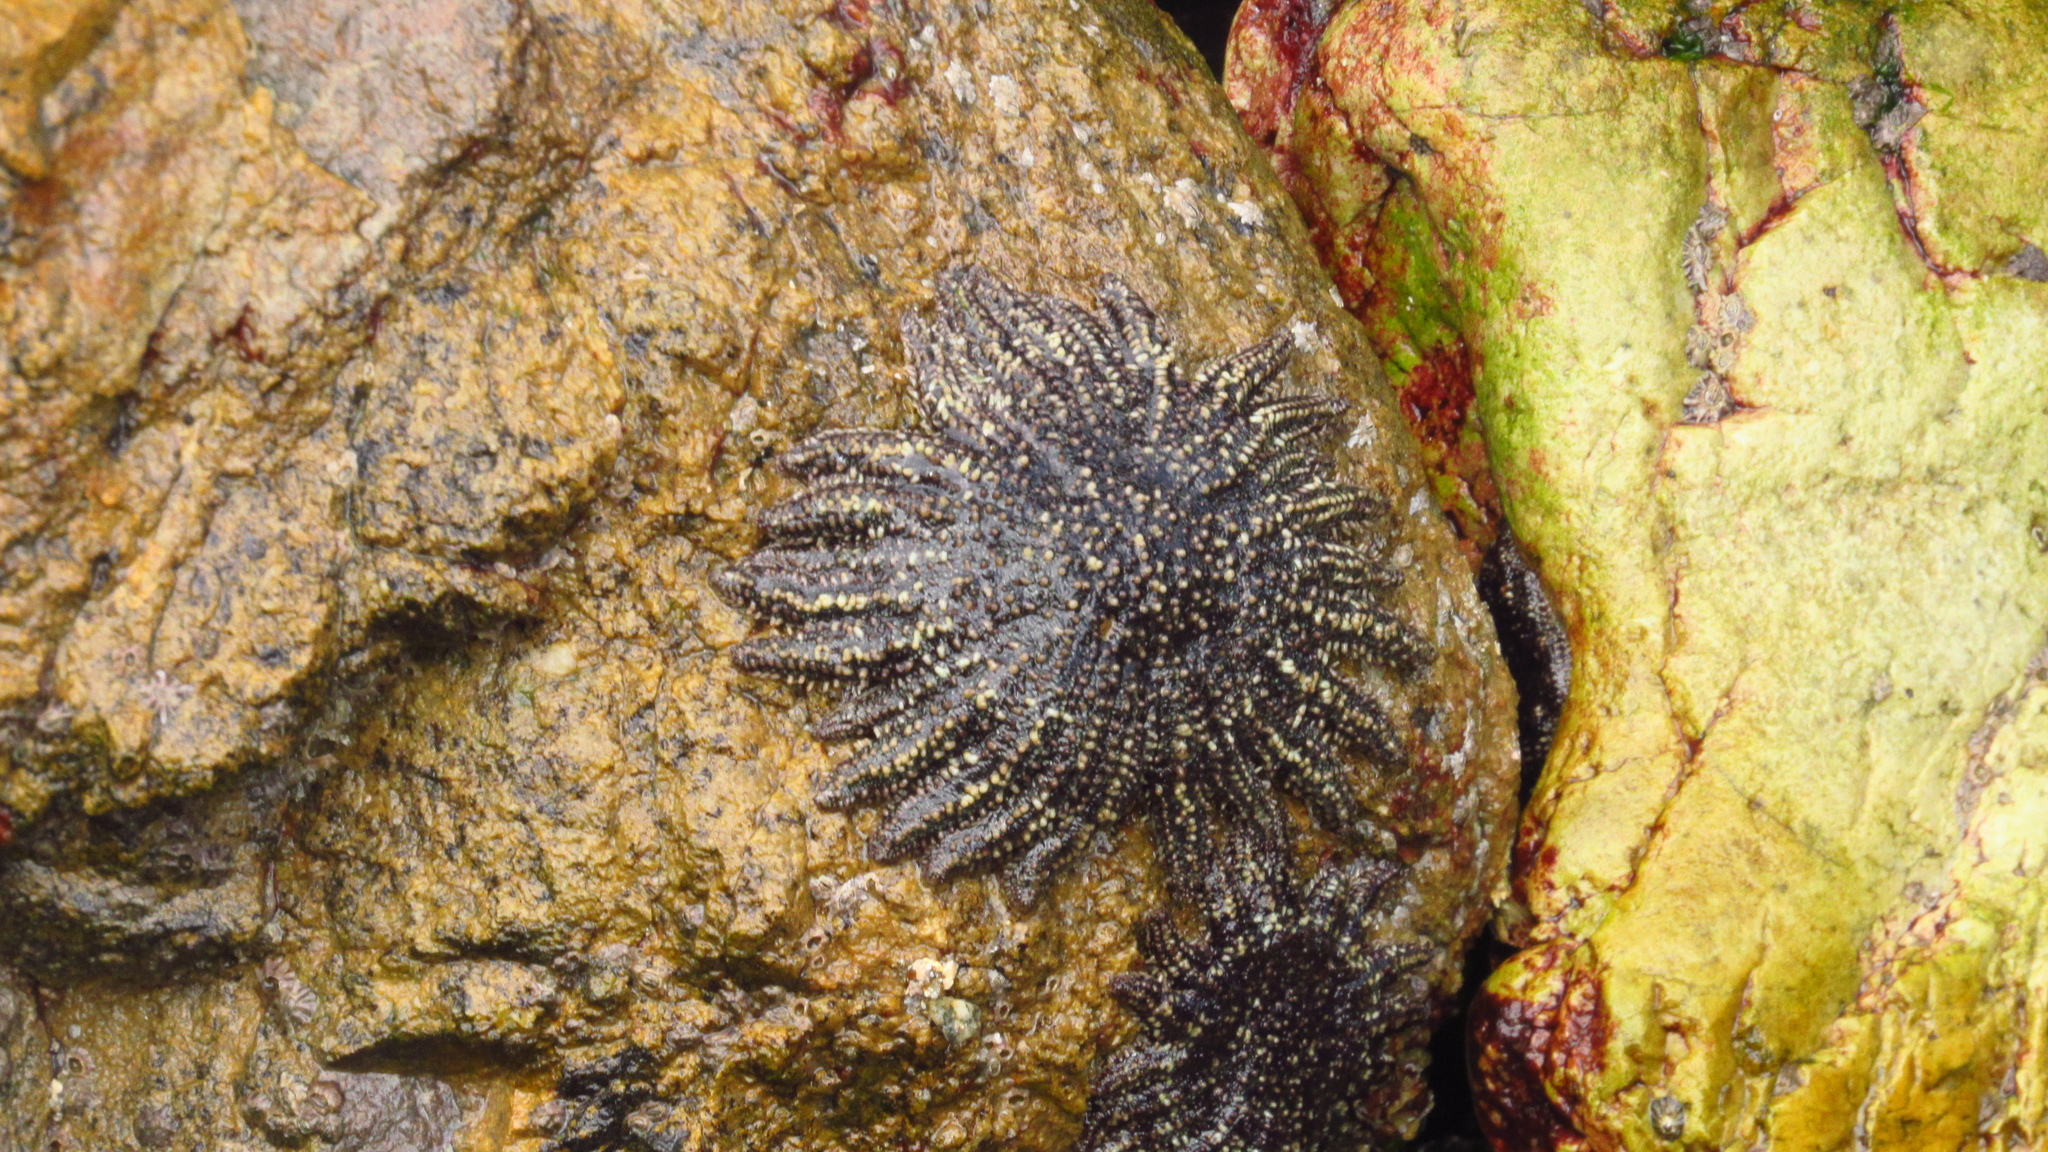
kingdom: Animalia
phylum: Echinodermata
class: Asteroidea
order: Forcipulatida
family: Heliasteridae
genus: Heliaster
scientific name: Heliaster helianthus
